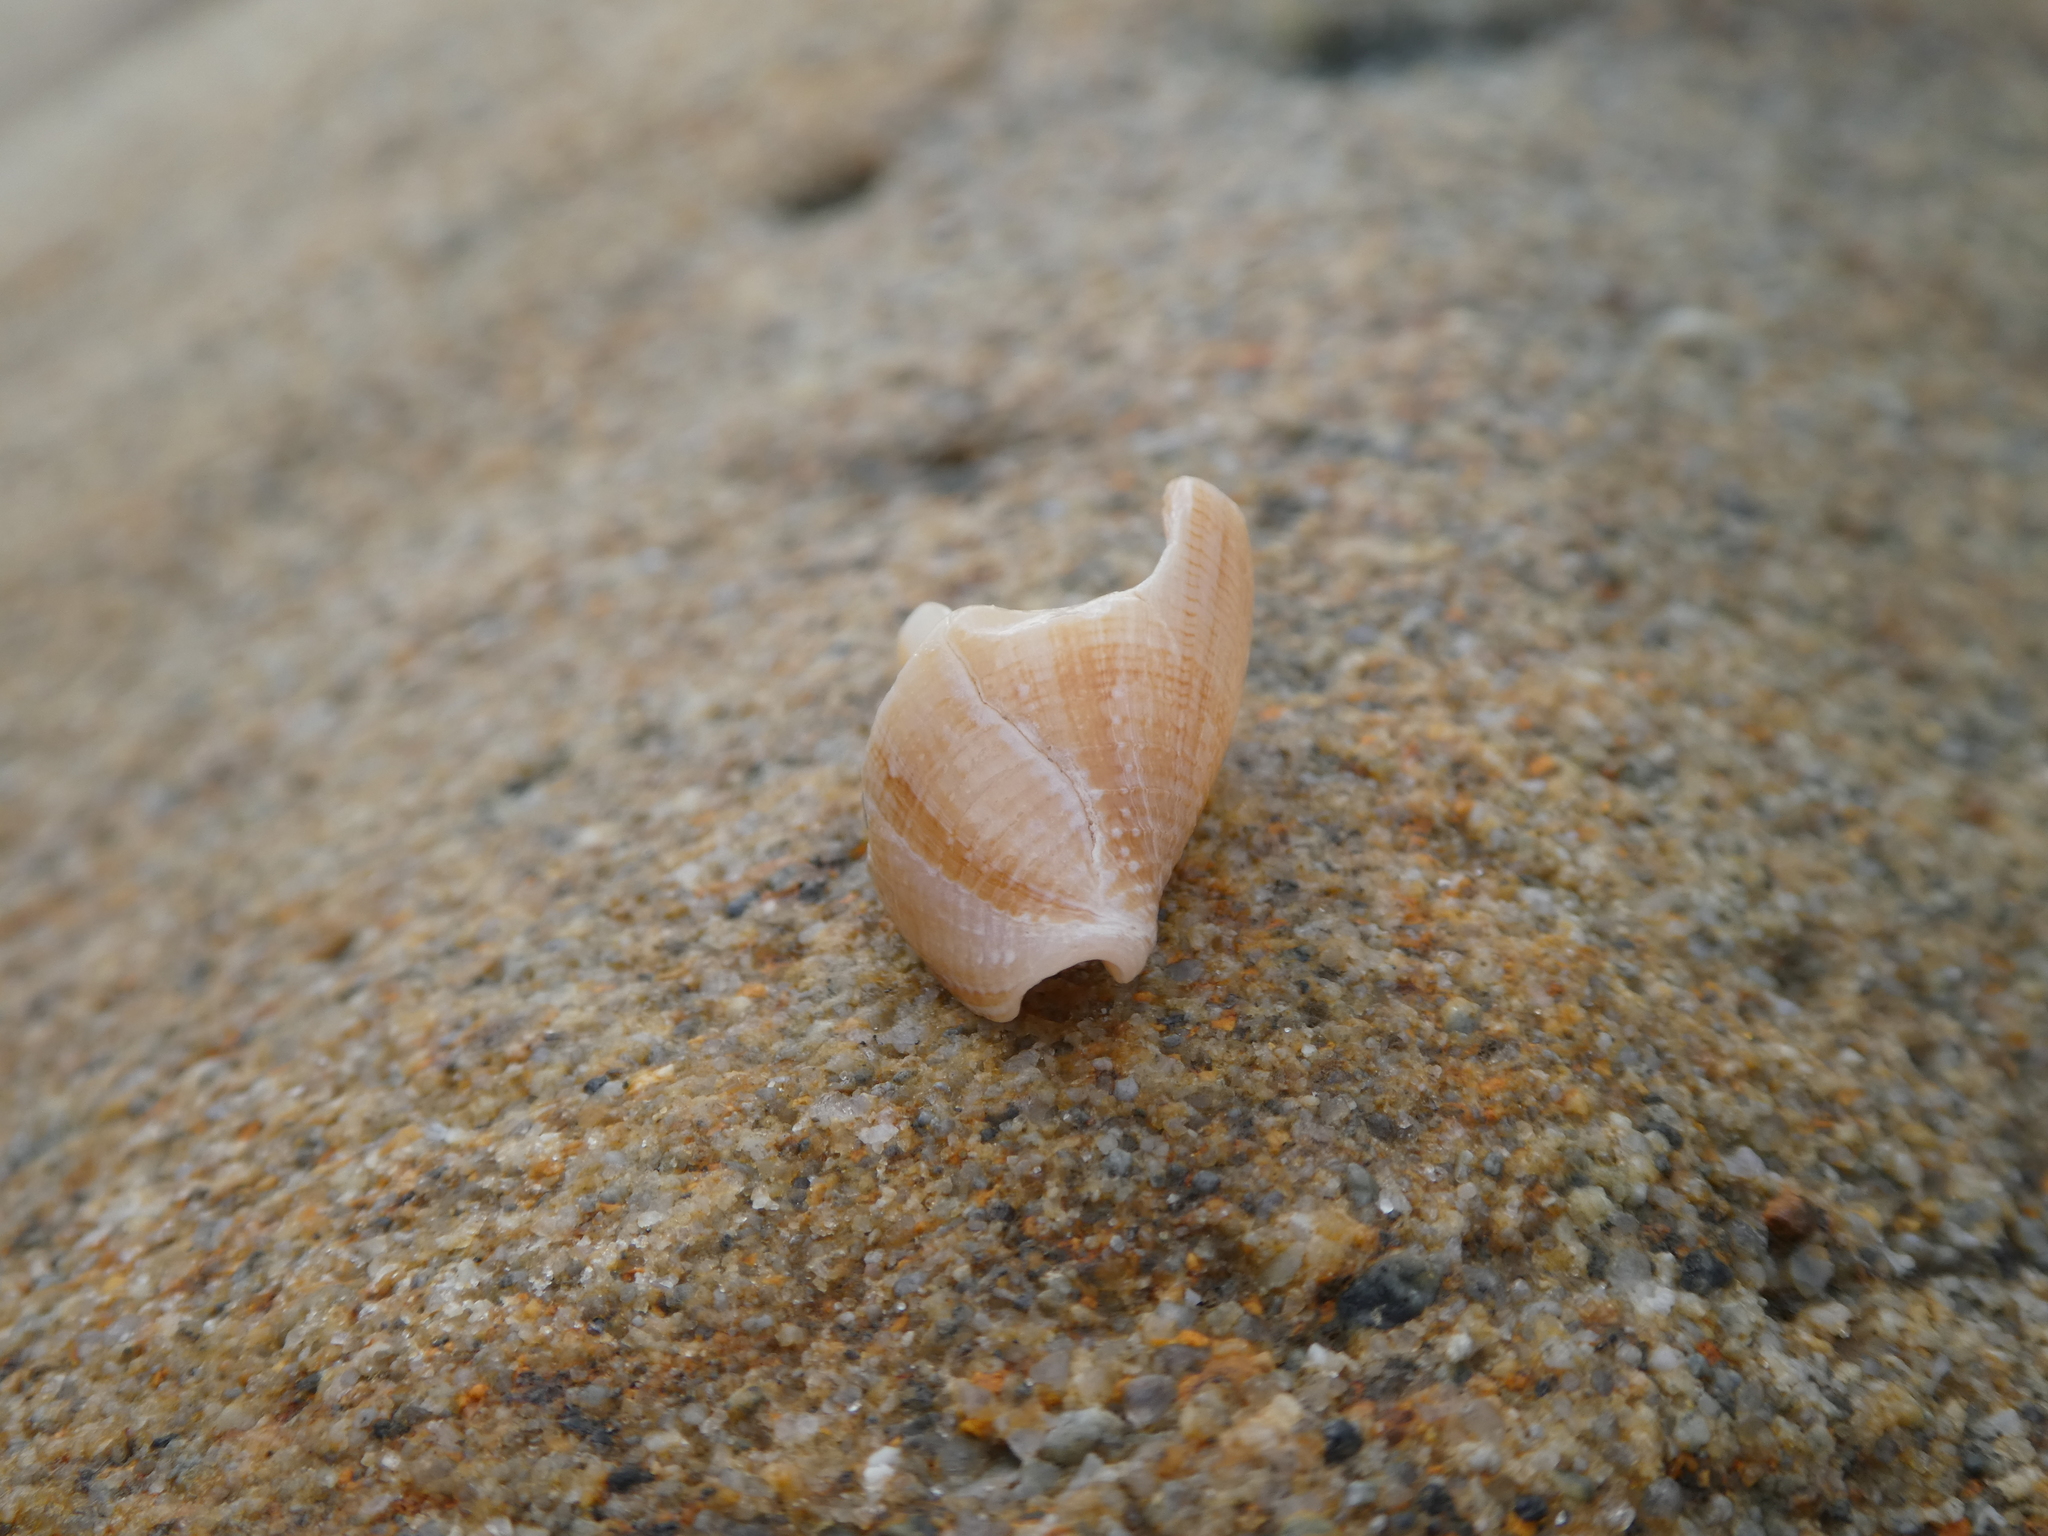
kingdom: Animalia
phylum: Mollusca
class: Gastropoda
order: Neogastropoda
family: Conidae
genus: Californiconus
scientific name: Californiconus californicus
